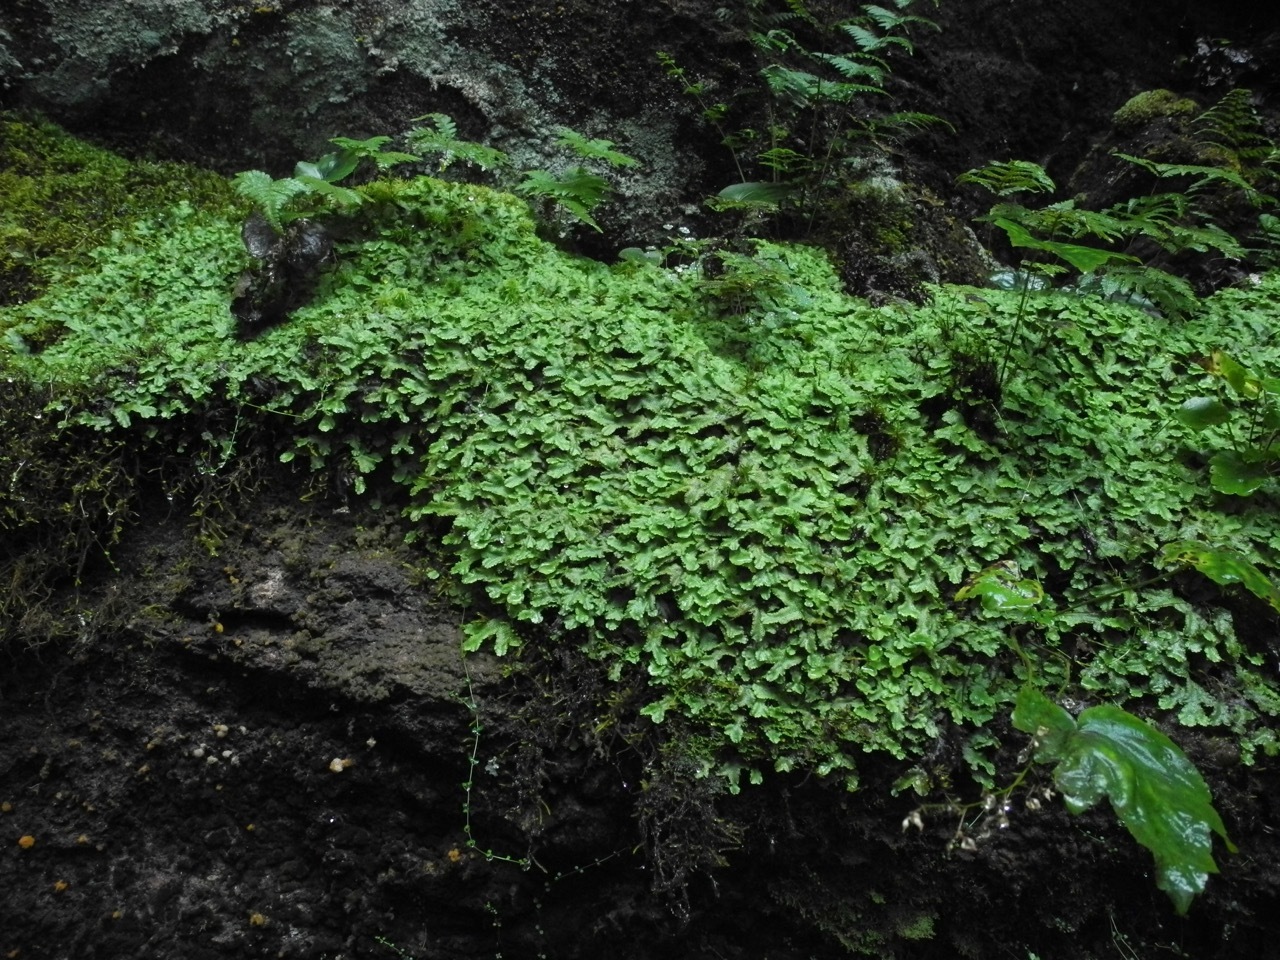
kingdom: Plantae
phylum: Marchantiophyta
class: Marchantiopsida
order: Marchantiales
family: Conocephalaceae
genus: Conocephalum
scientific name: Conocephalum salebrosum
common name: Cat-tongue liverwort
